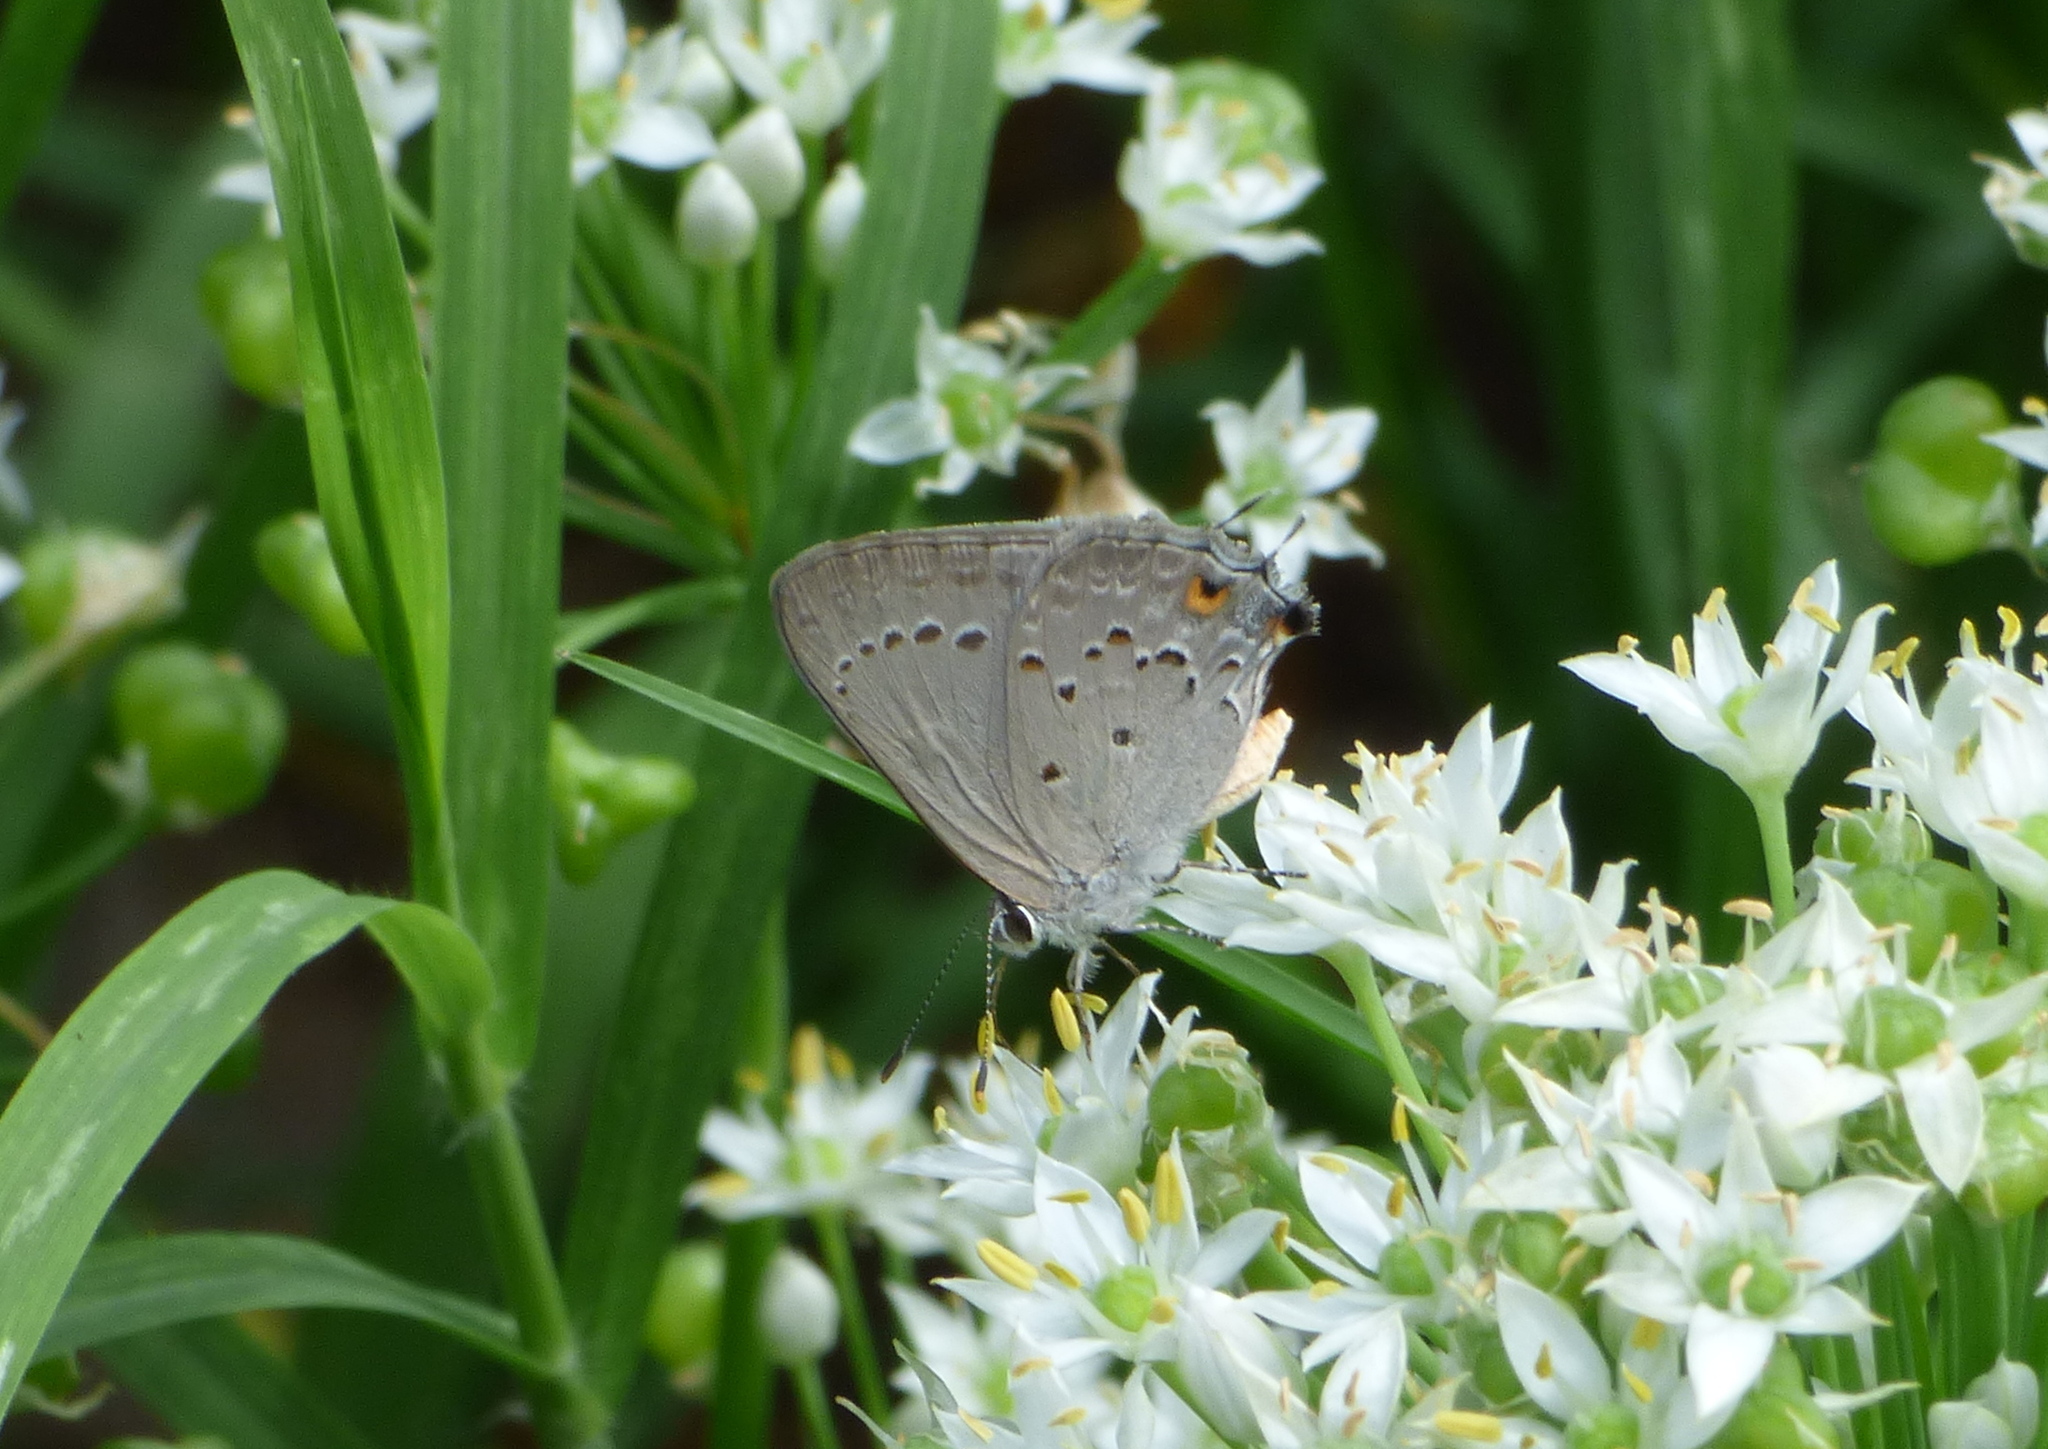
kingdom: Animalia
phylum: Arthropoda
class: Insecta
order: Lepidoptera
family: Lycaenidae
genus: Strymon
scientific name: Strymon eurytulus
